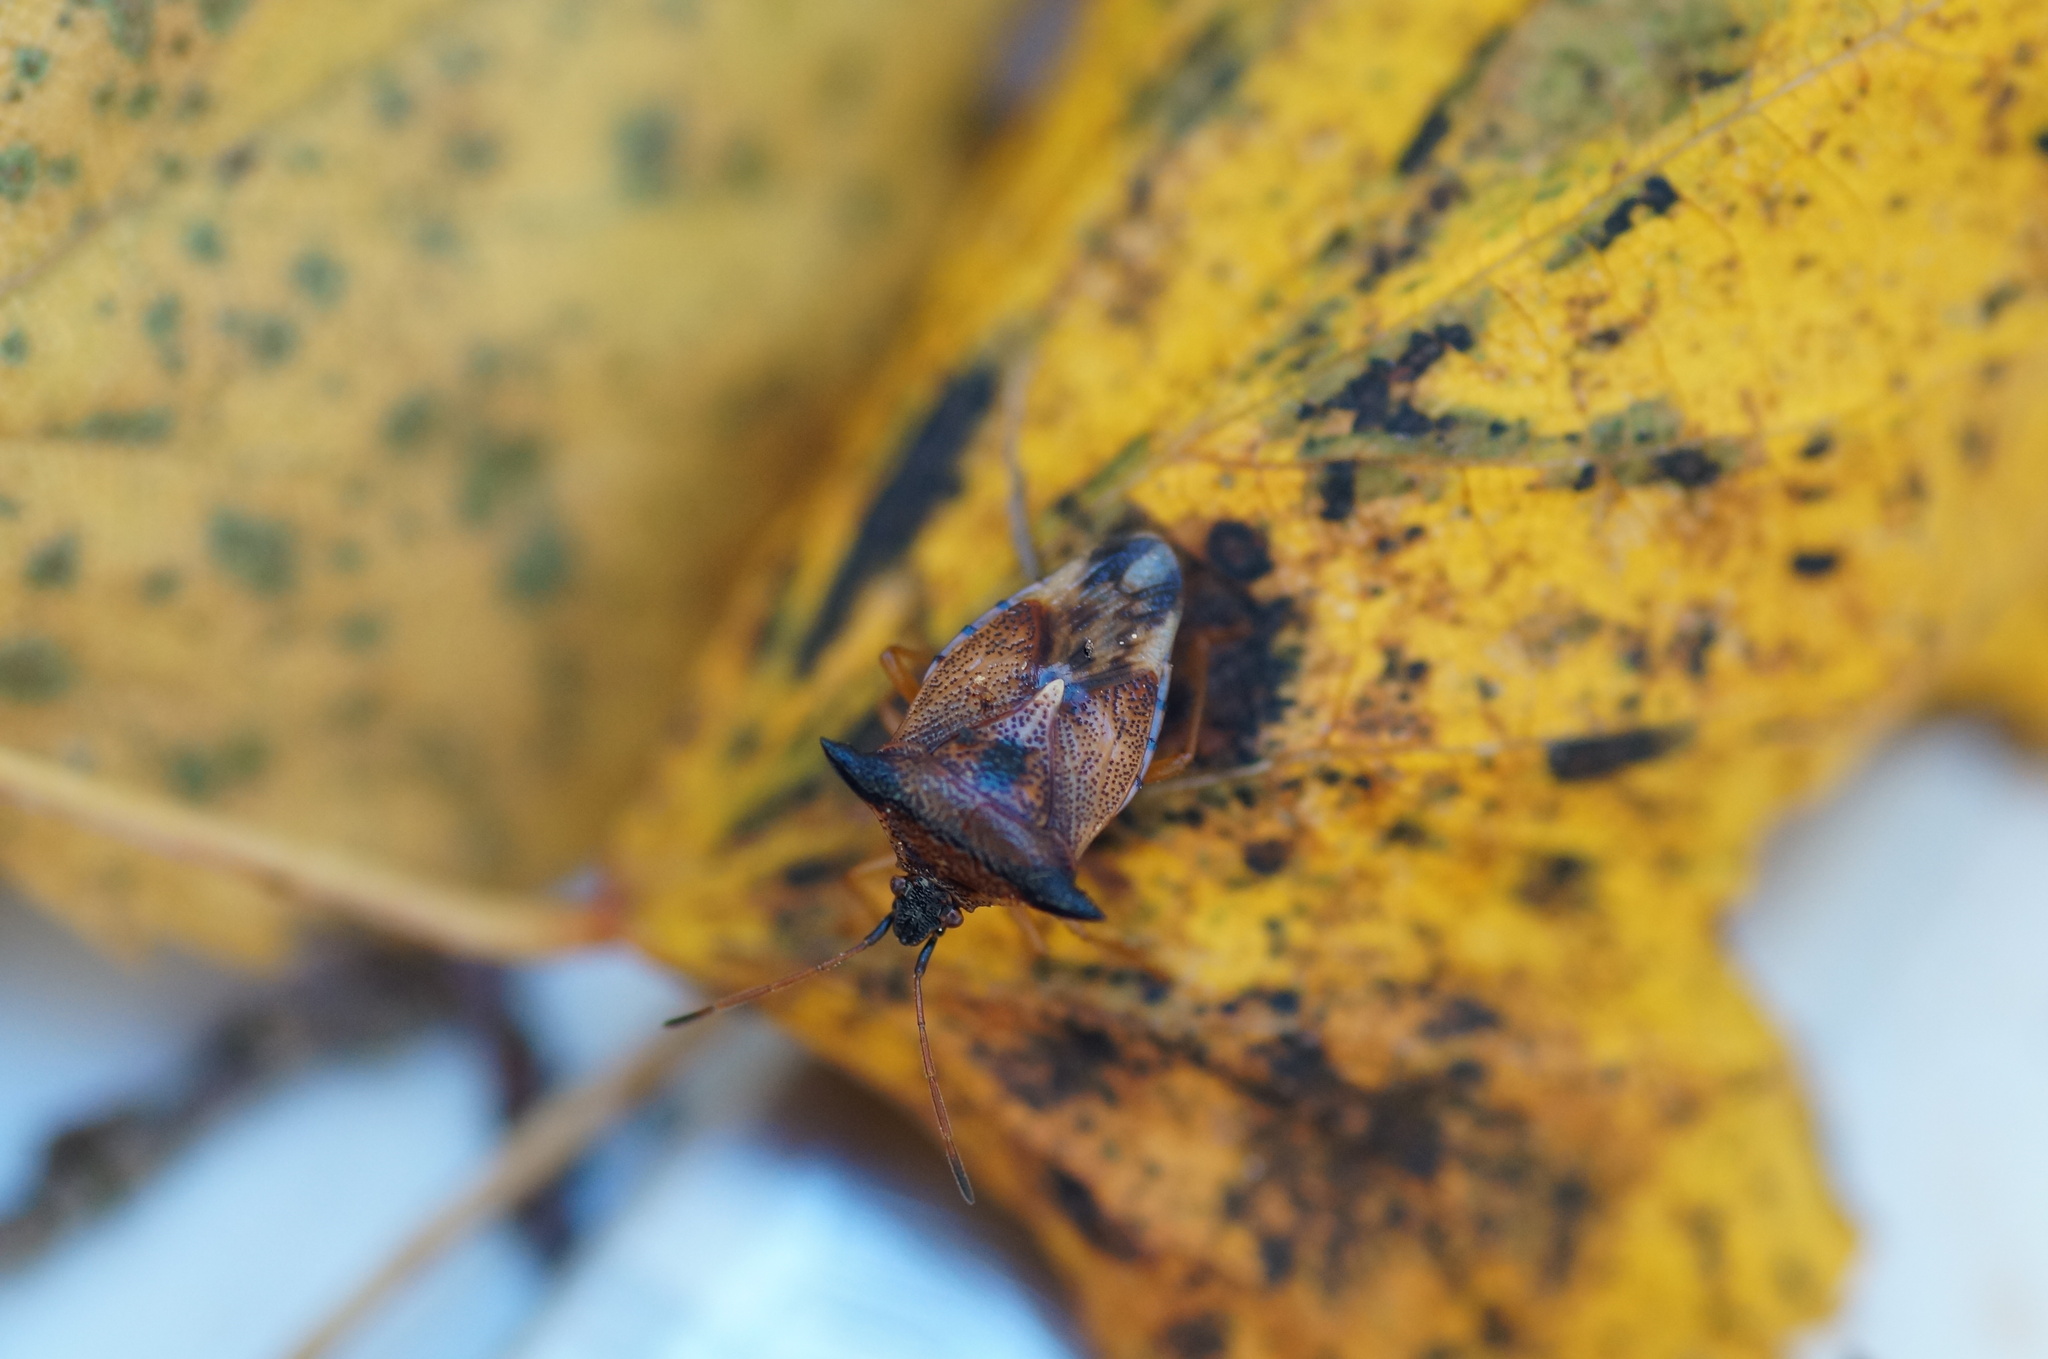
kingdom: Animalia
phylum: Arthropoda
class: Insecta
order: Hemiptera
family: Acanthosomatidae
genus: Elasmucha
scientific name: Elasmucha ferrugata
